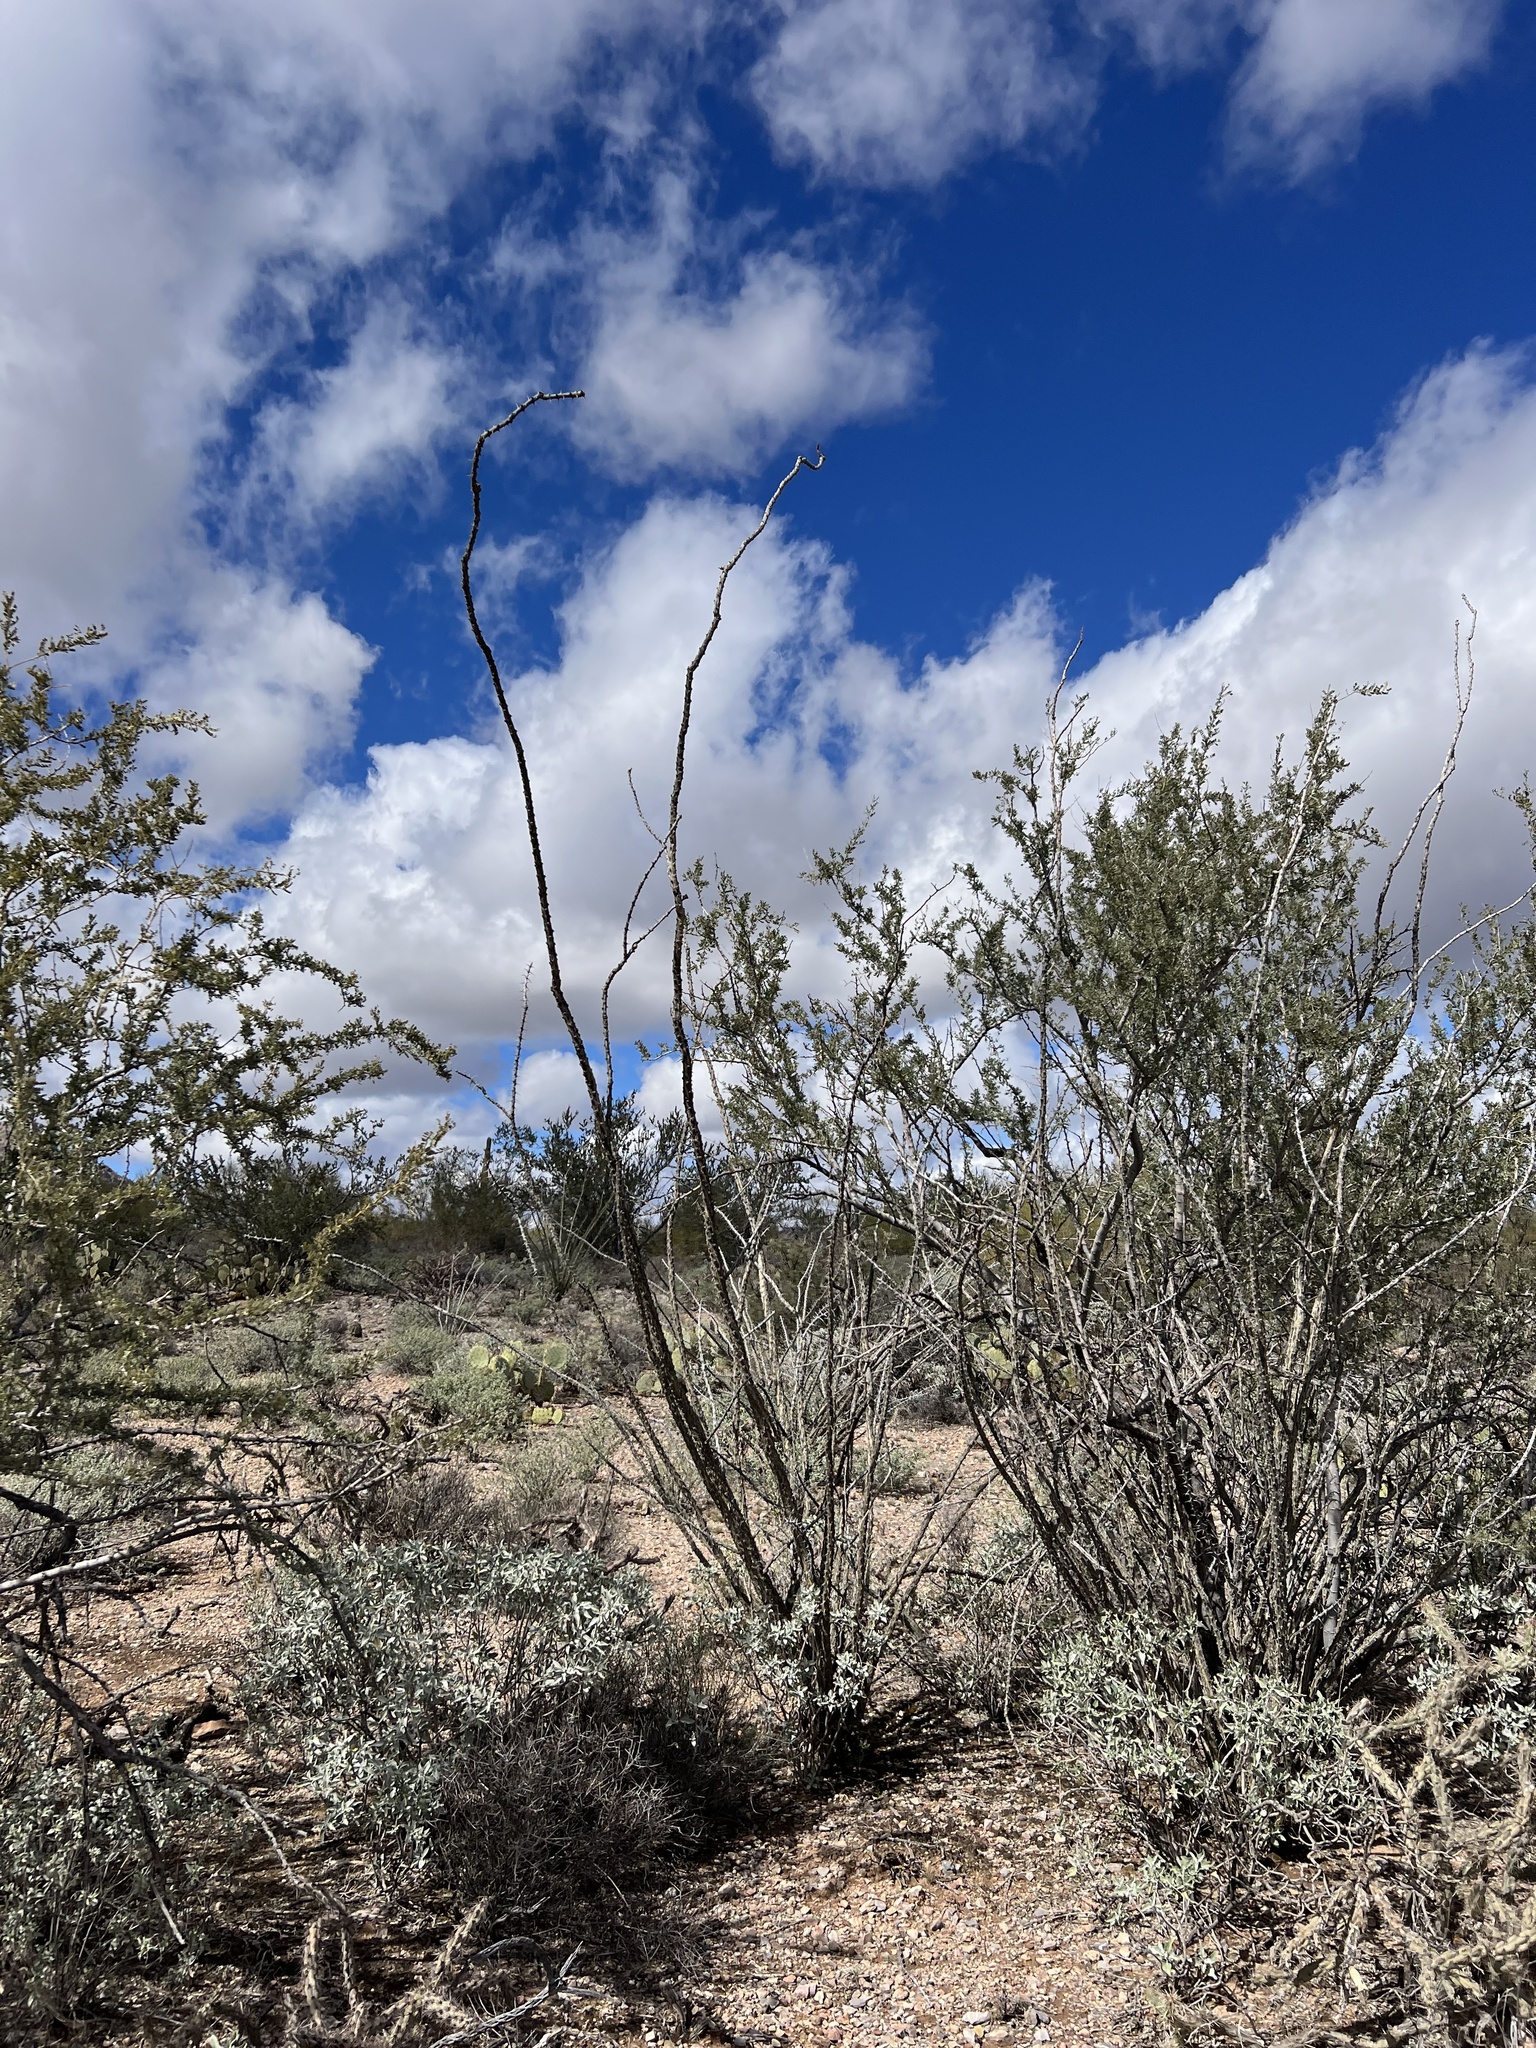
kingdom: Plantae
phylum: Tracheophyta
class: Magnoliopsida
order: Ericales
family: Fouquieriaceae
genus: Fouquieria
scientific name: Fouquieria splendens
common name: Vine-cactus
